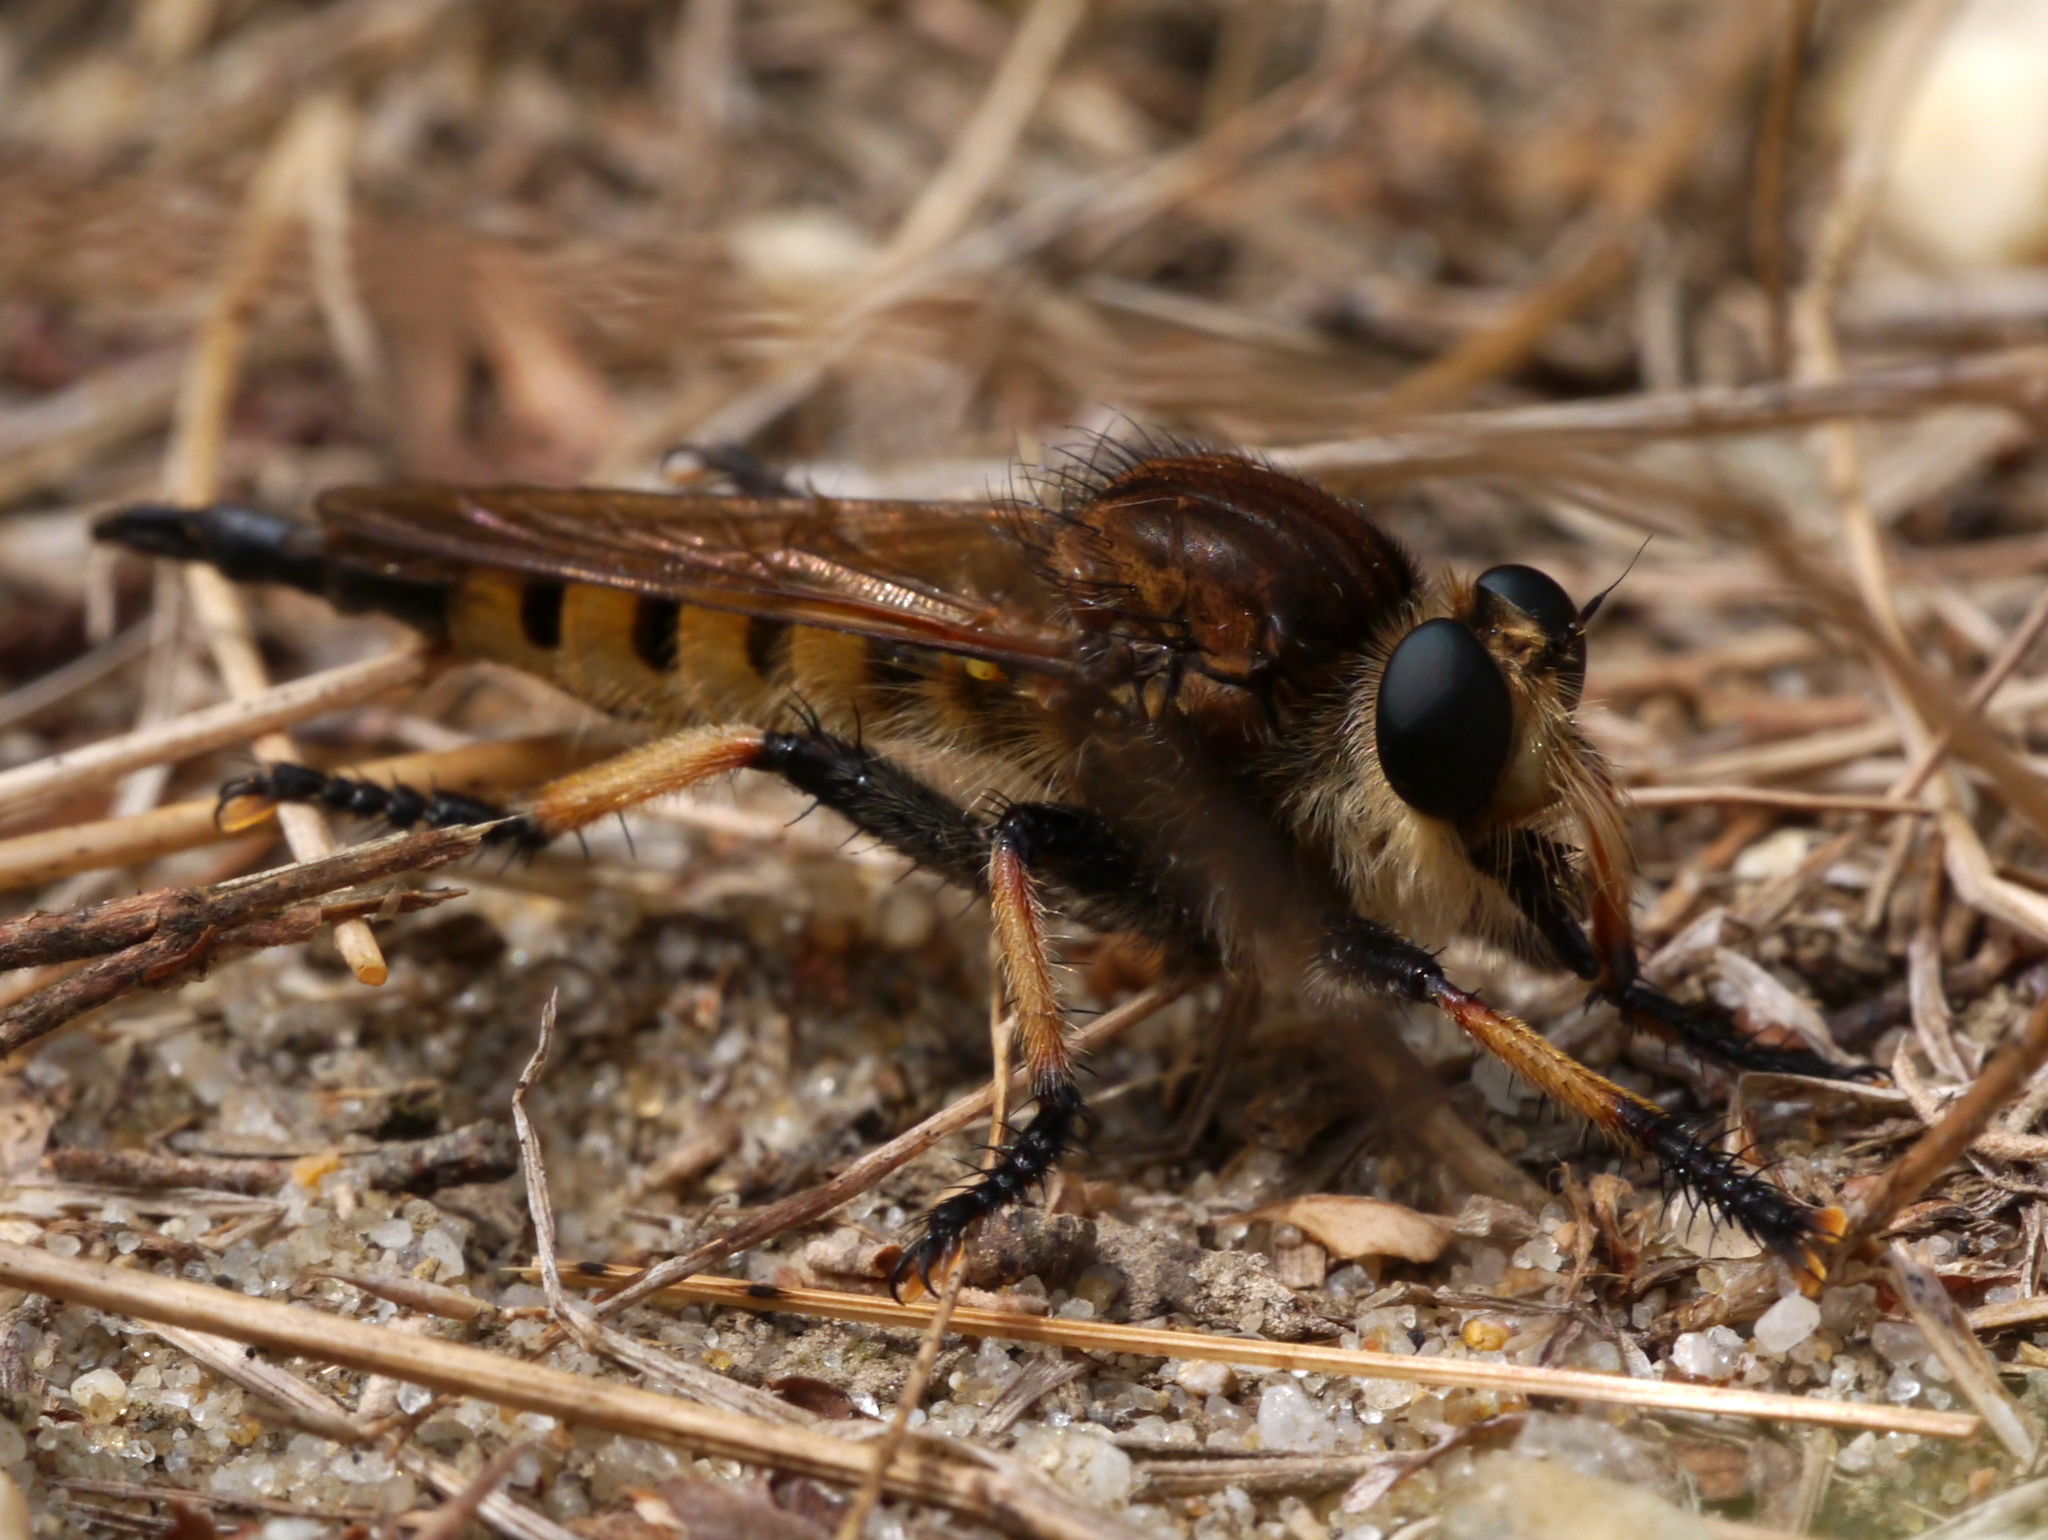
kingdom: Animalia
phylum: Arthropoda
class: Insecta
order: Diptera
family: Asilidae
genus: Promachus
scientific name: Promachus rufipes
